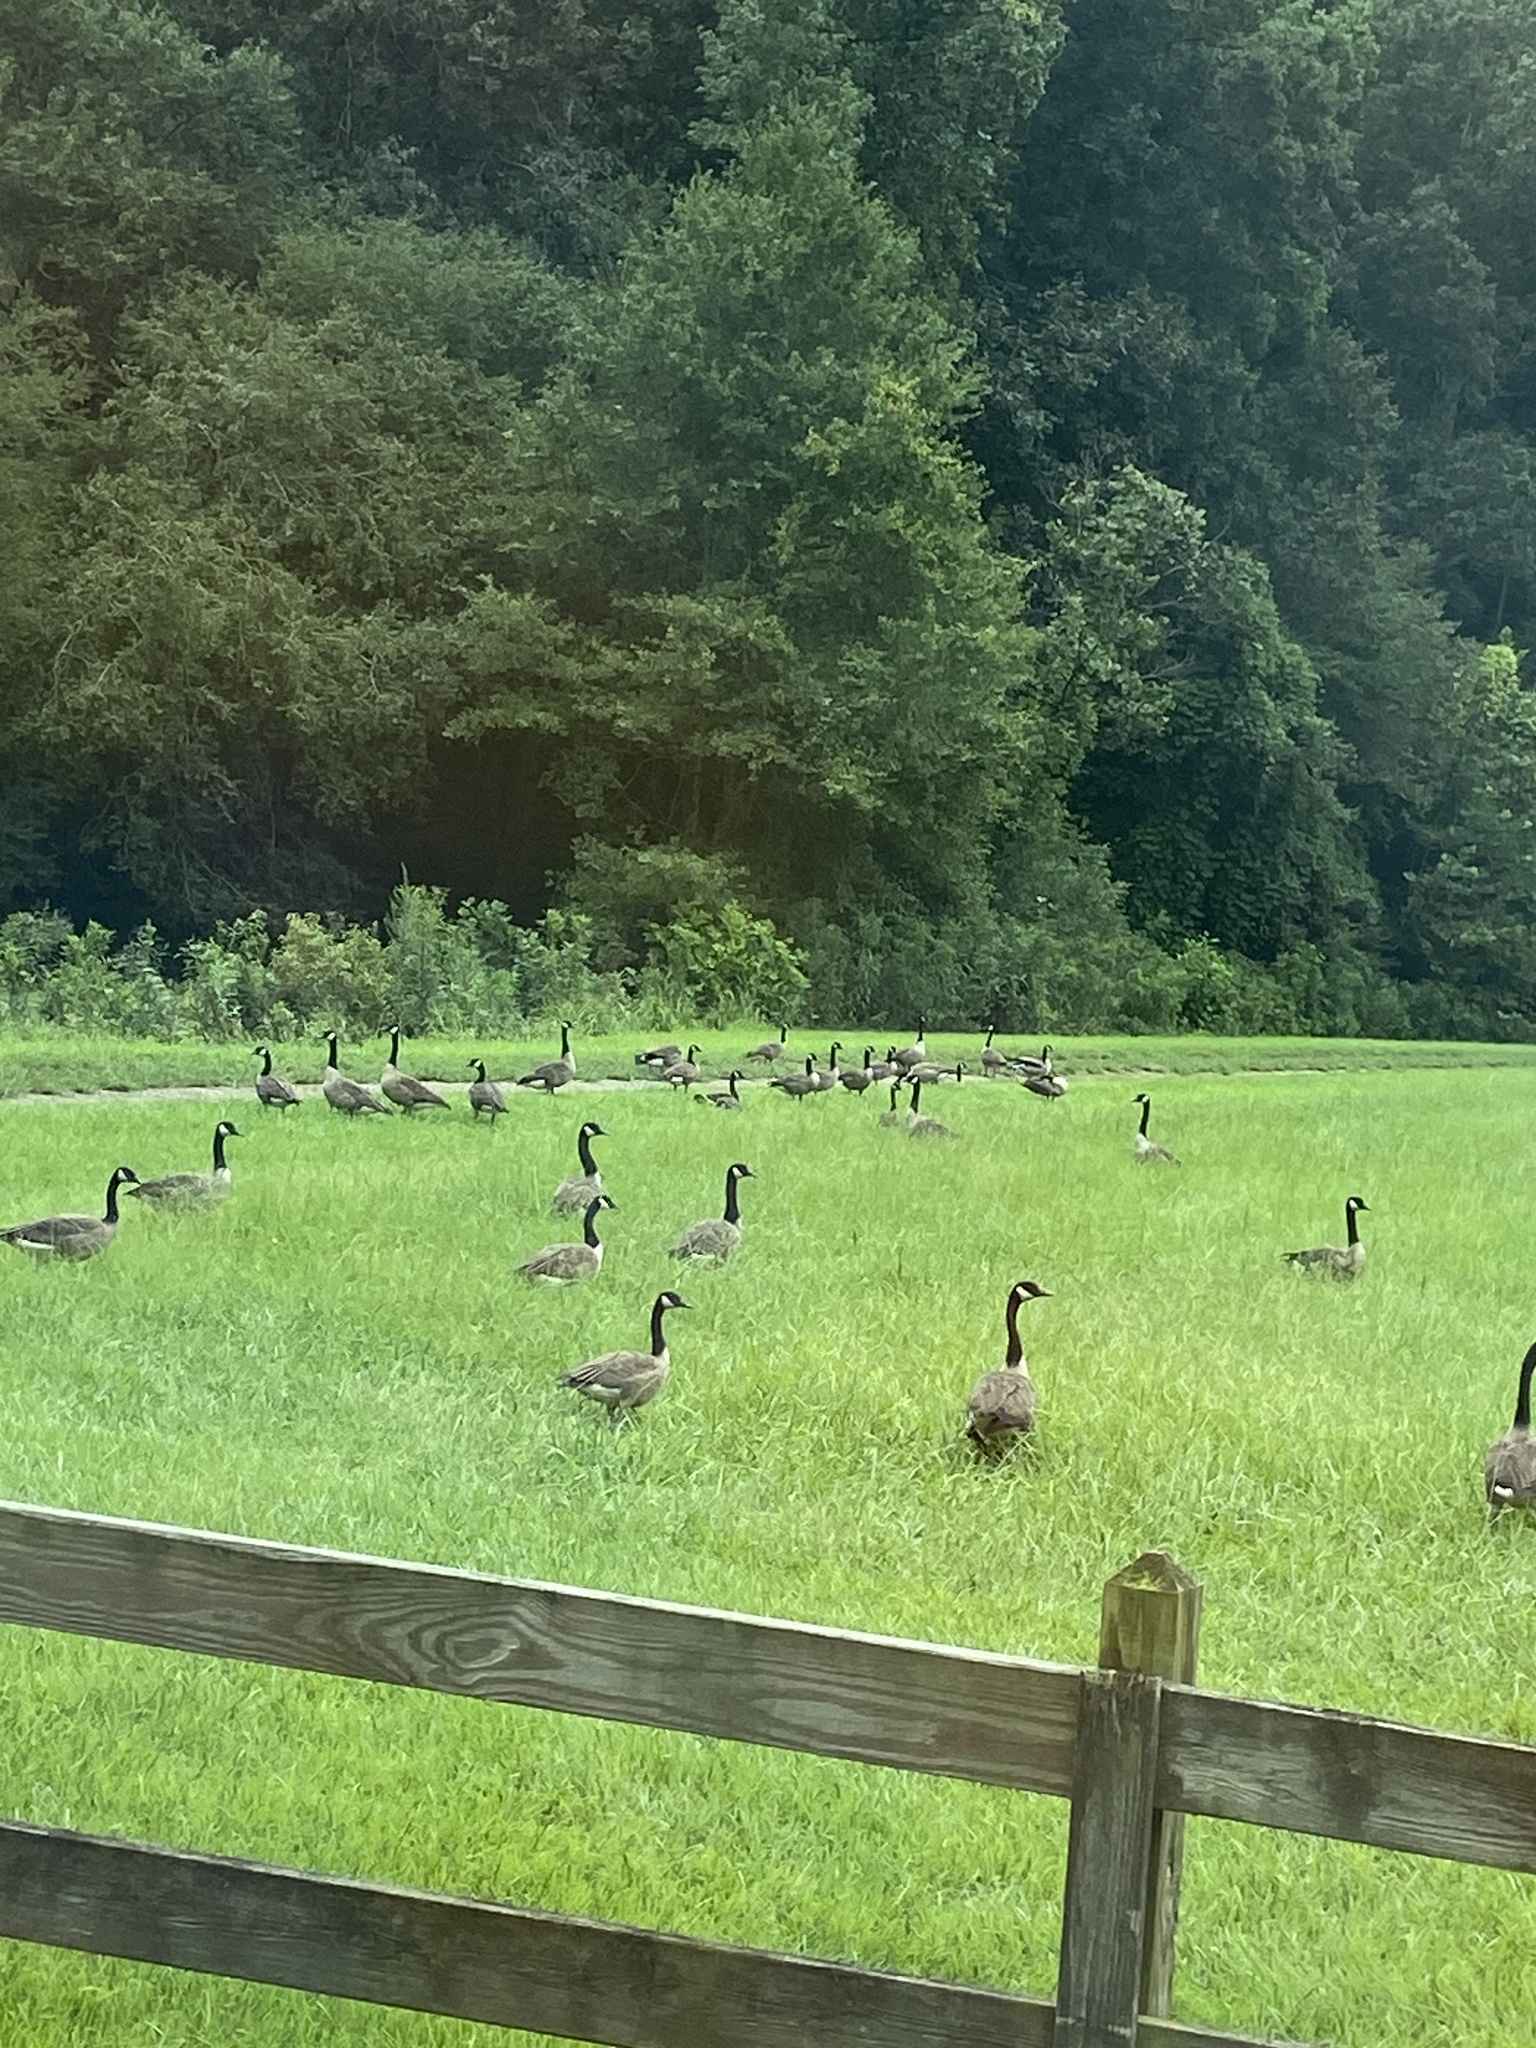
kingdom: Animalia
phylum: Chordata
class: Aves
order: Anseriformes
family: Anatidae
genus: Branta
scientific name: Branta canadensis
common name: Canada goose
